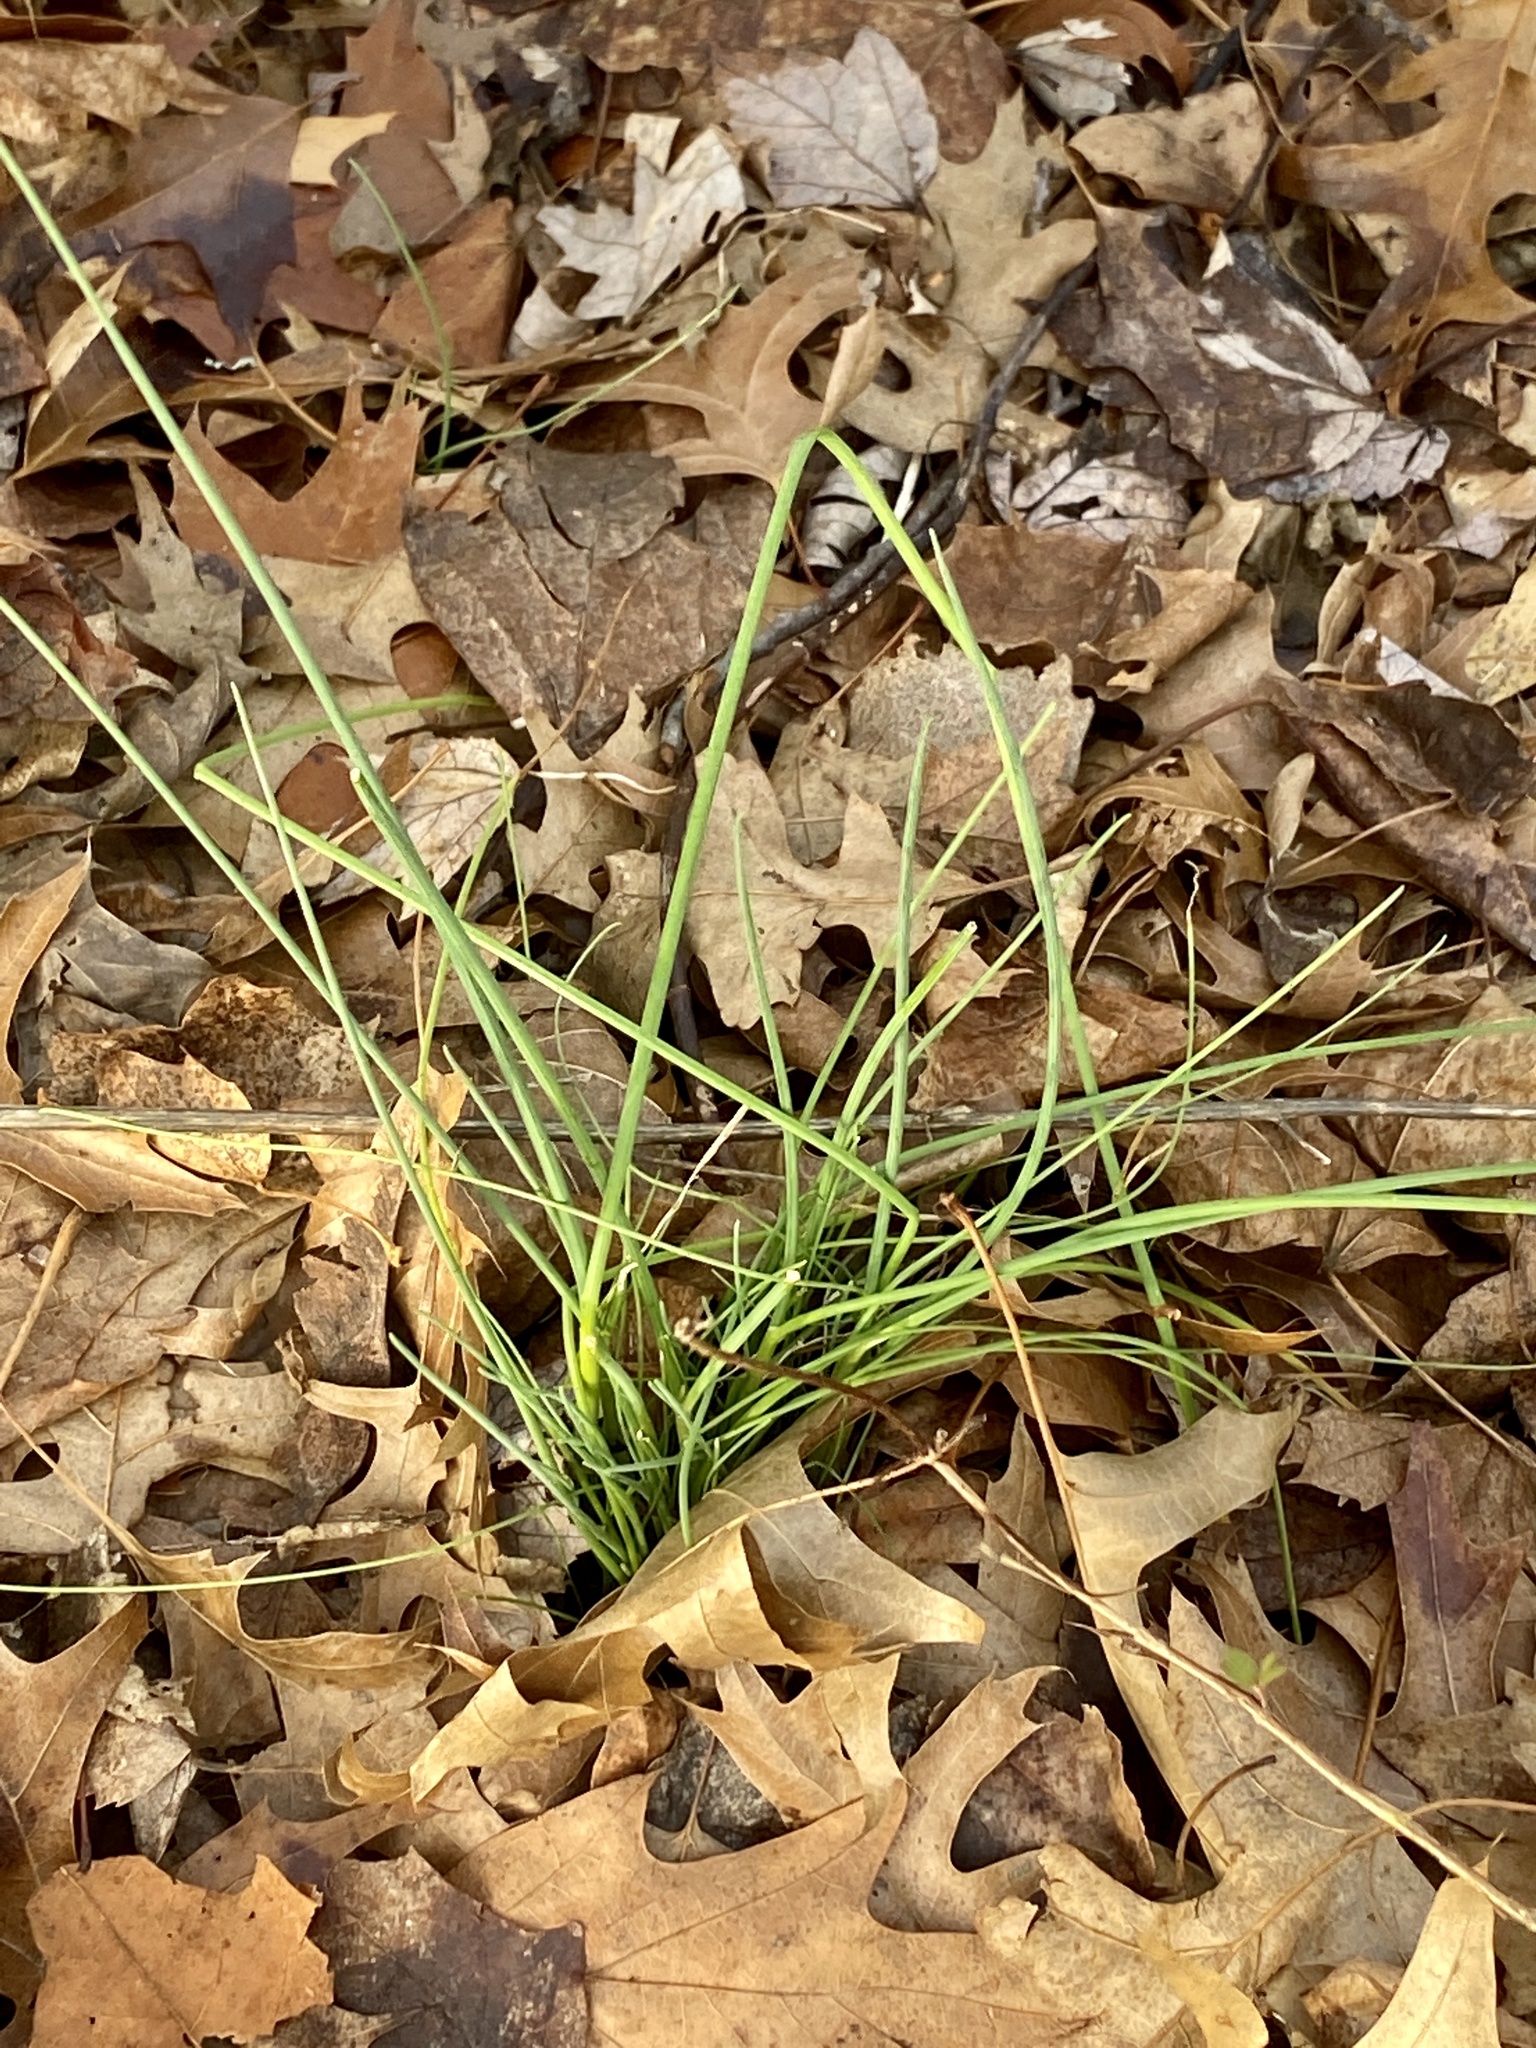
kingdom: Plantae
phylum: Tracheophyta
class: Liliopsida
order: Asparagales
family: Amaryllidaceae
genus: Allium
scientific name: Allium vineale
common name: Crow garlic
